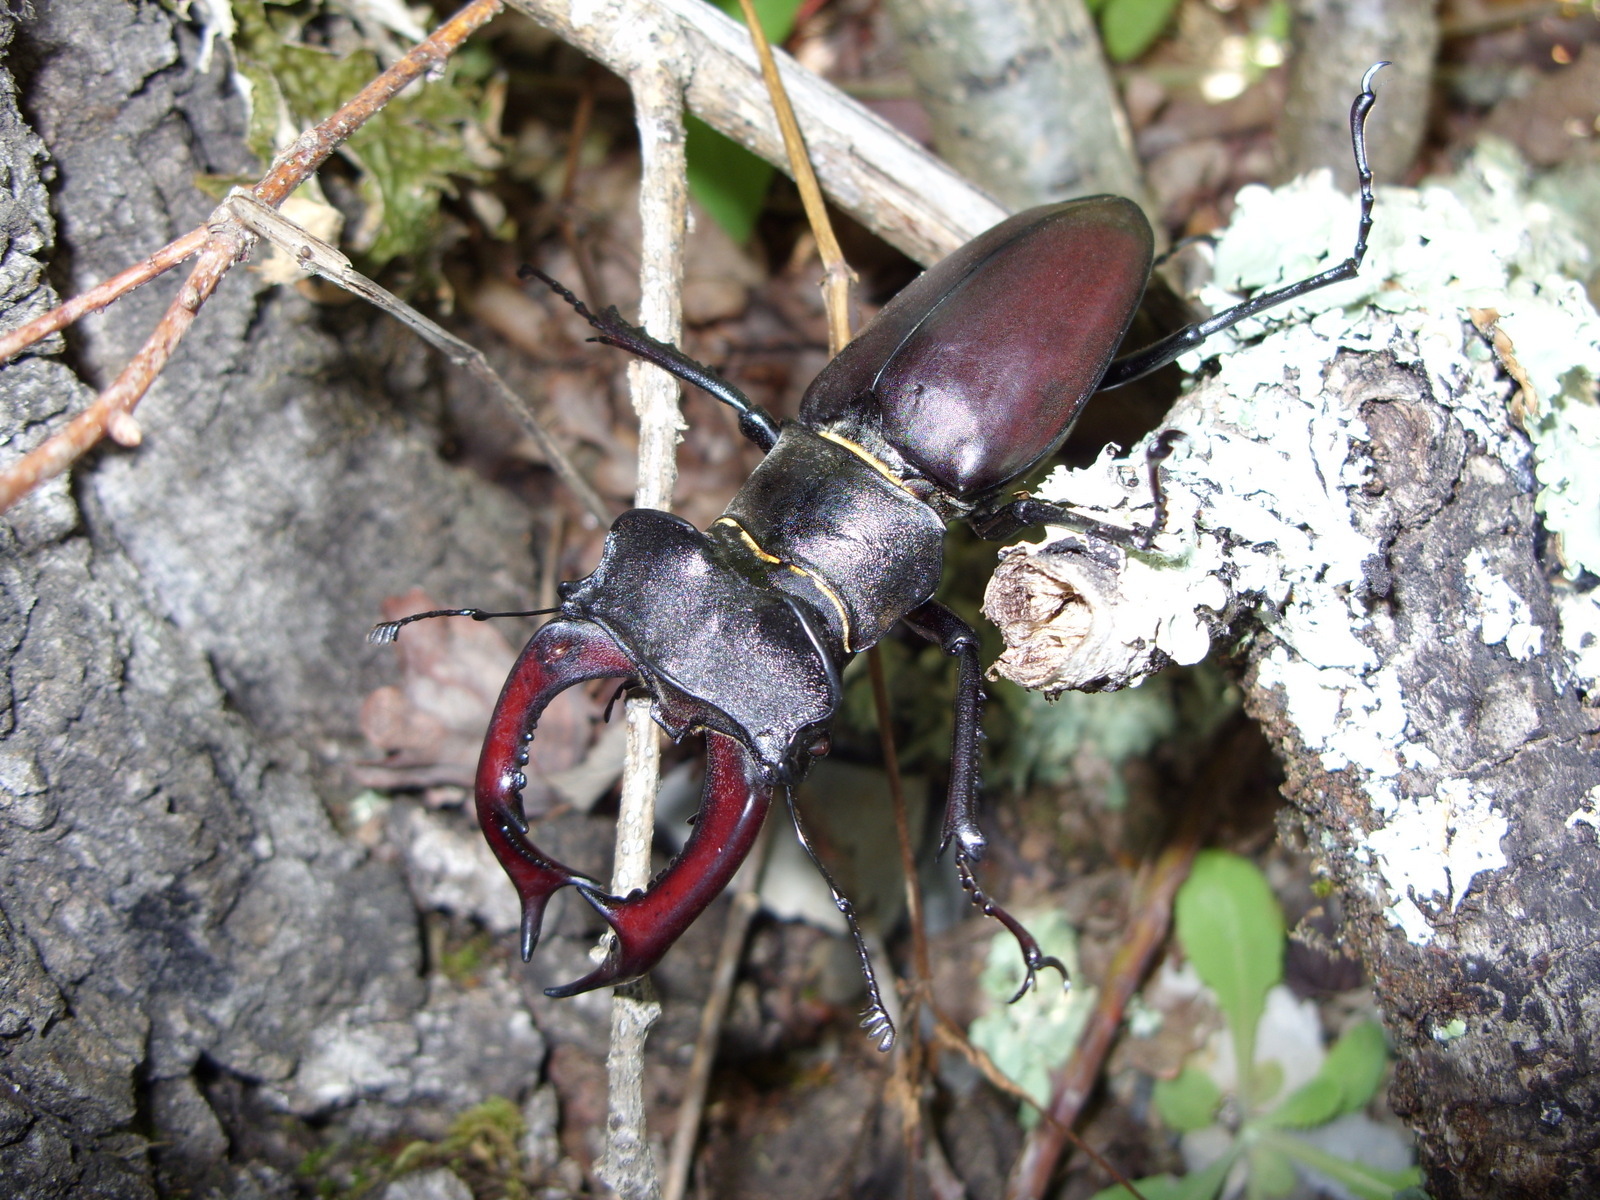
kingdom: Animalia
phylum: Arthropoda
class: Insecta
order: Coleoptera
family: Lucanidae
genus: Lucanus
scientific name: Lucanus cervus
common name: Stag beetle
